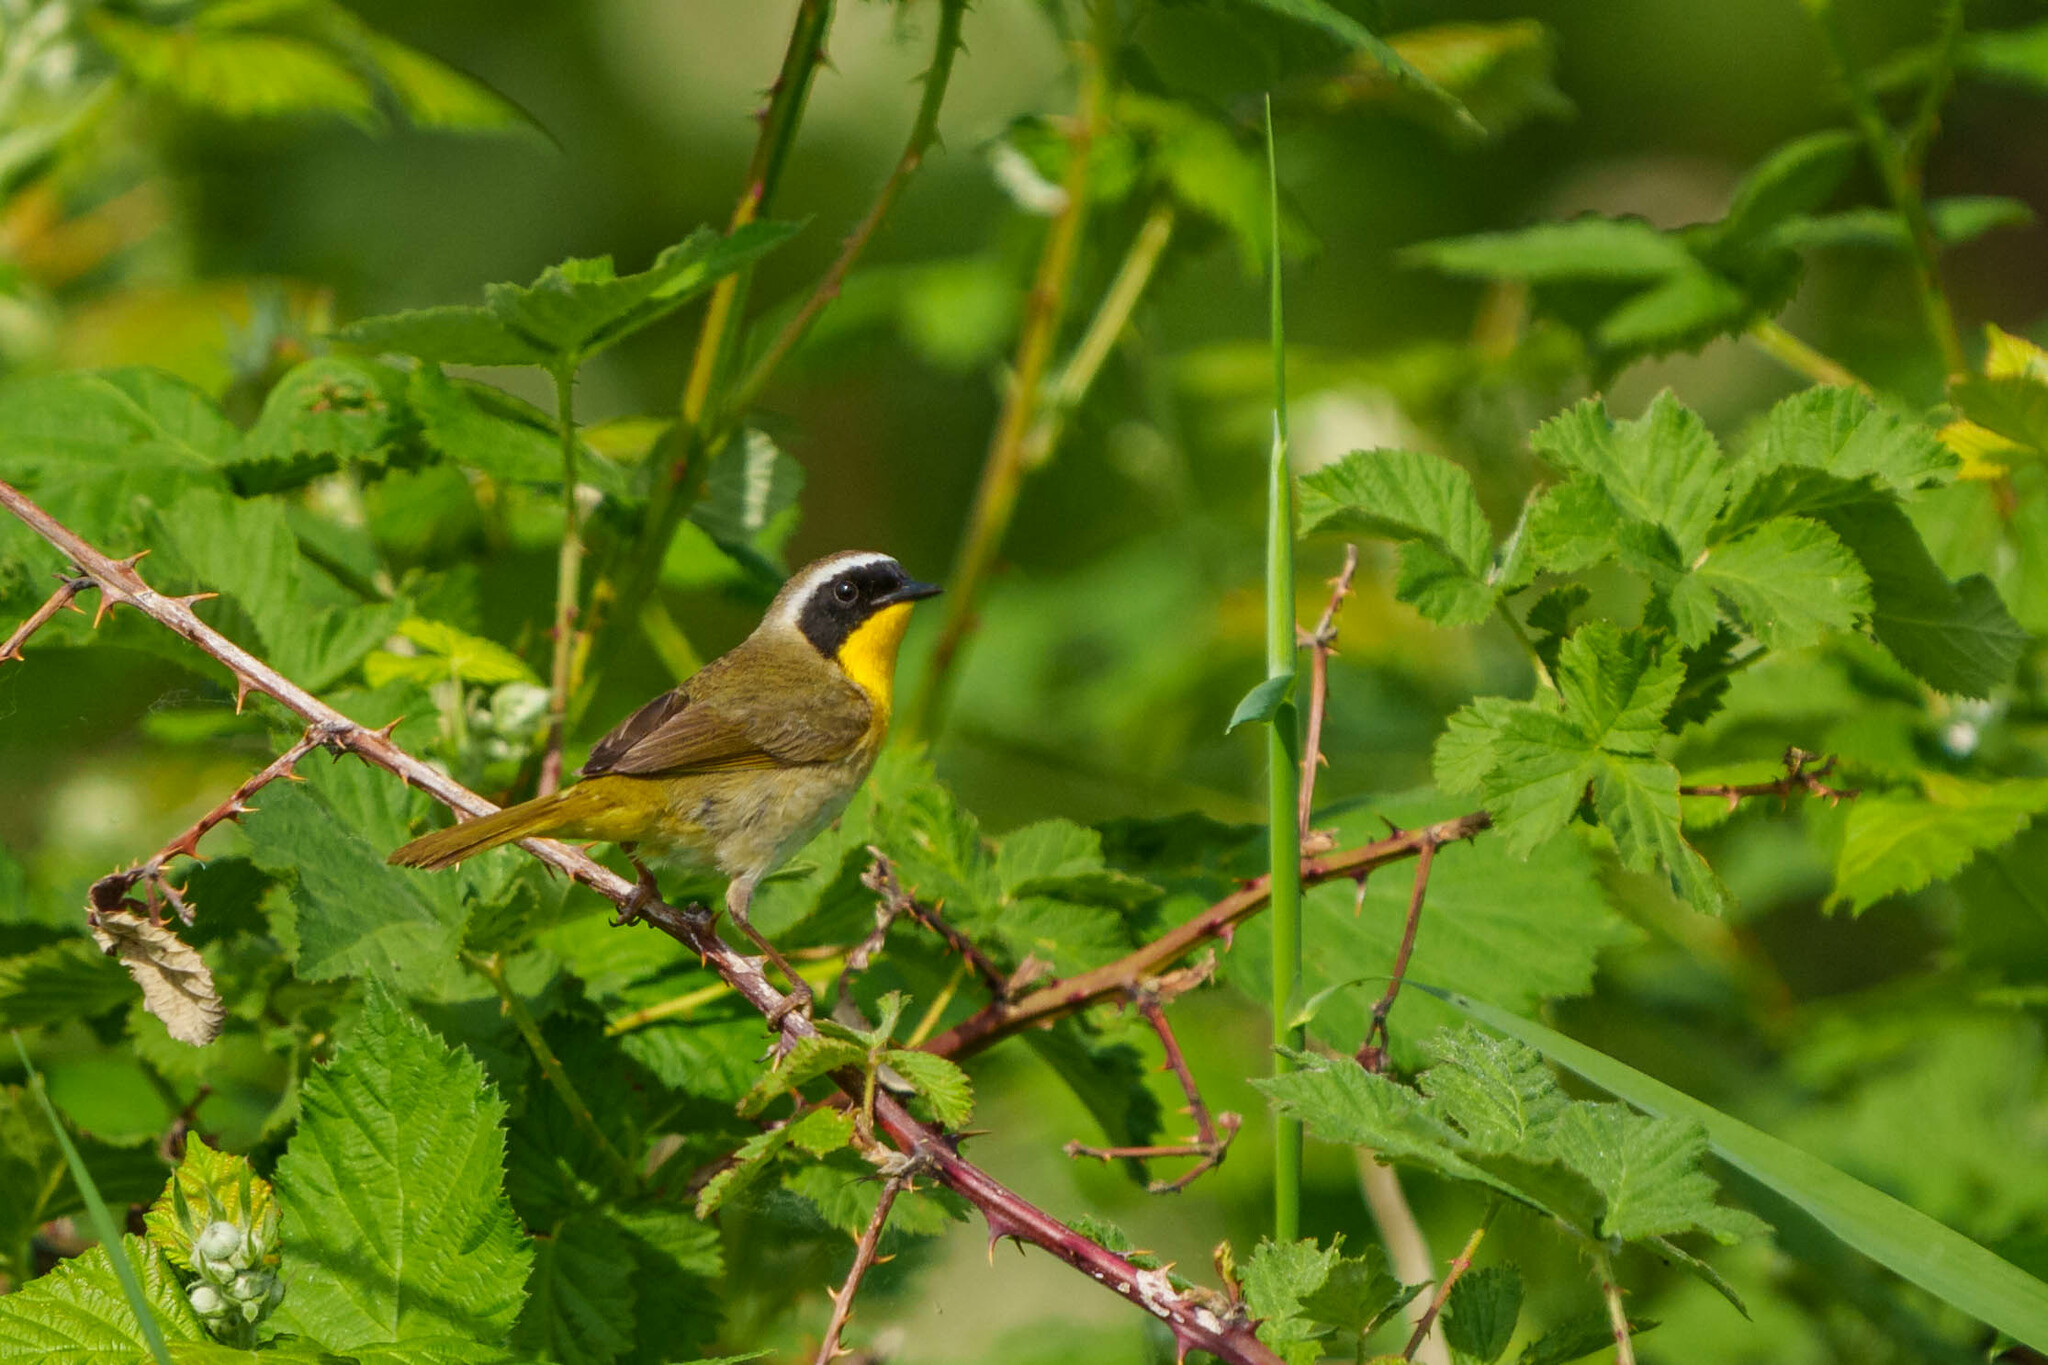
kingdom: Animalia
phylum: Chordata
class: Aves
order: Passeriformes
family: Parulidae
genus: Geothlypis
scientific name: Geothlypis trichas
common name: Common yellowthroat
